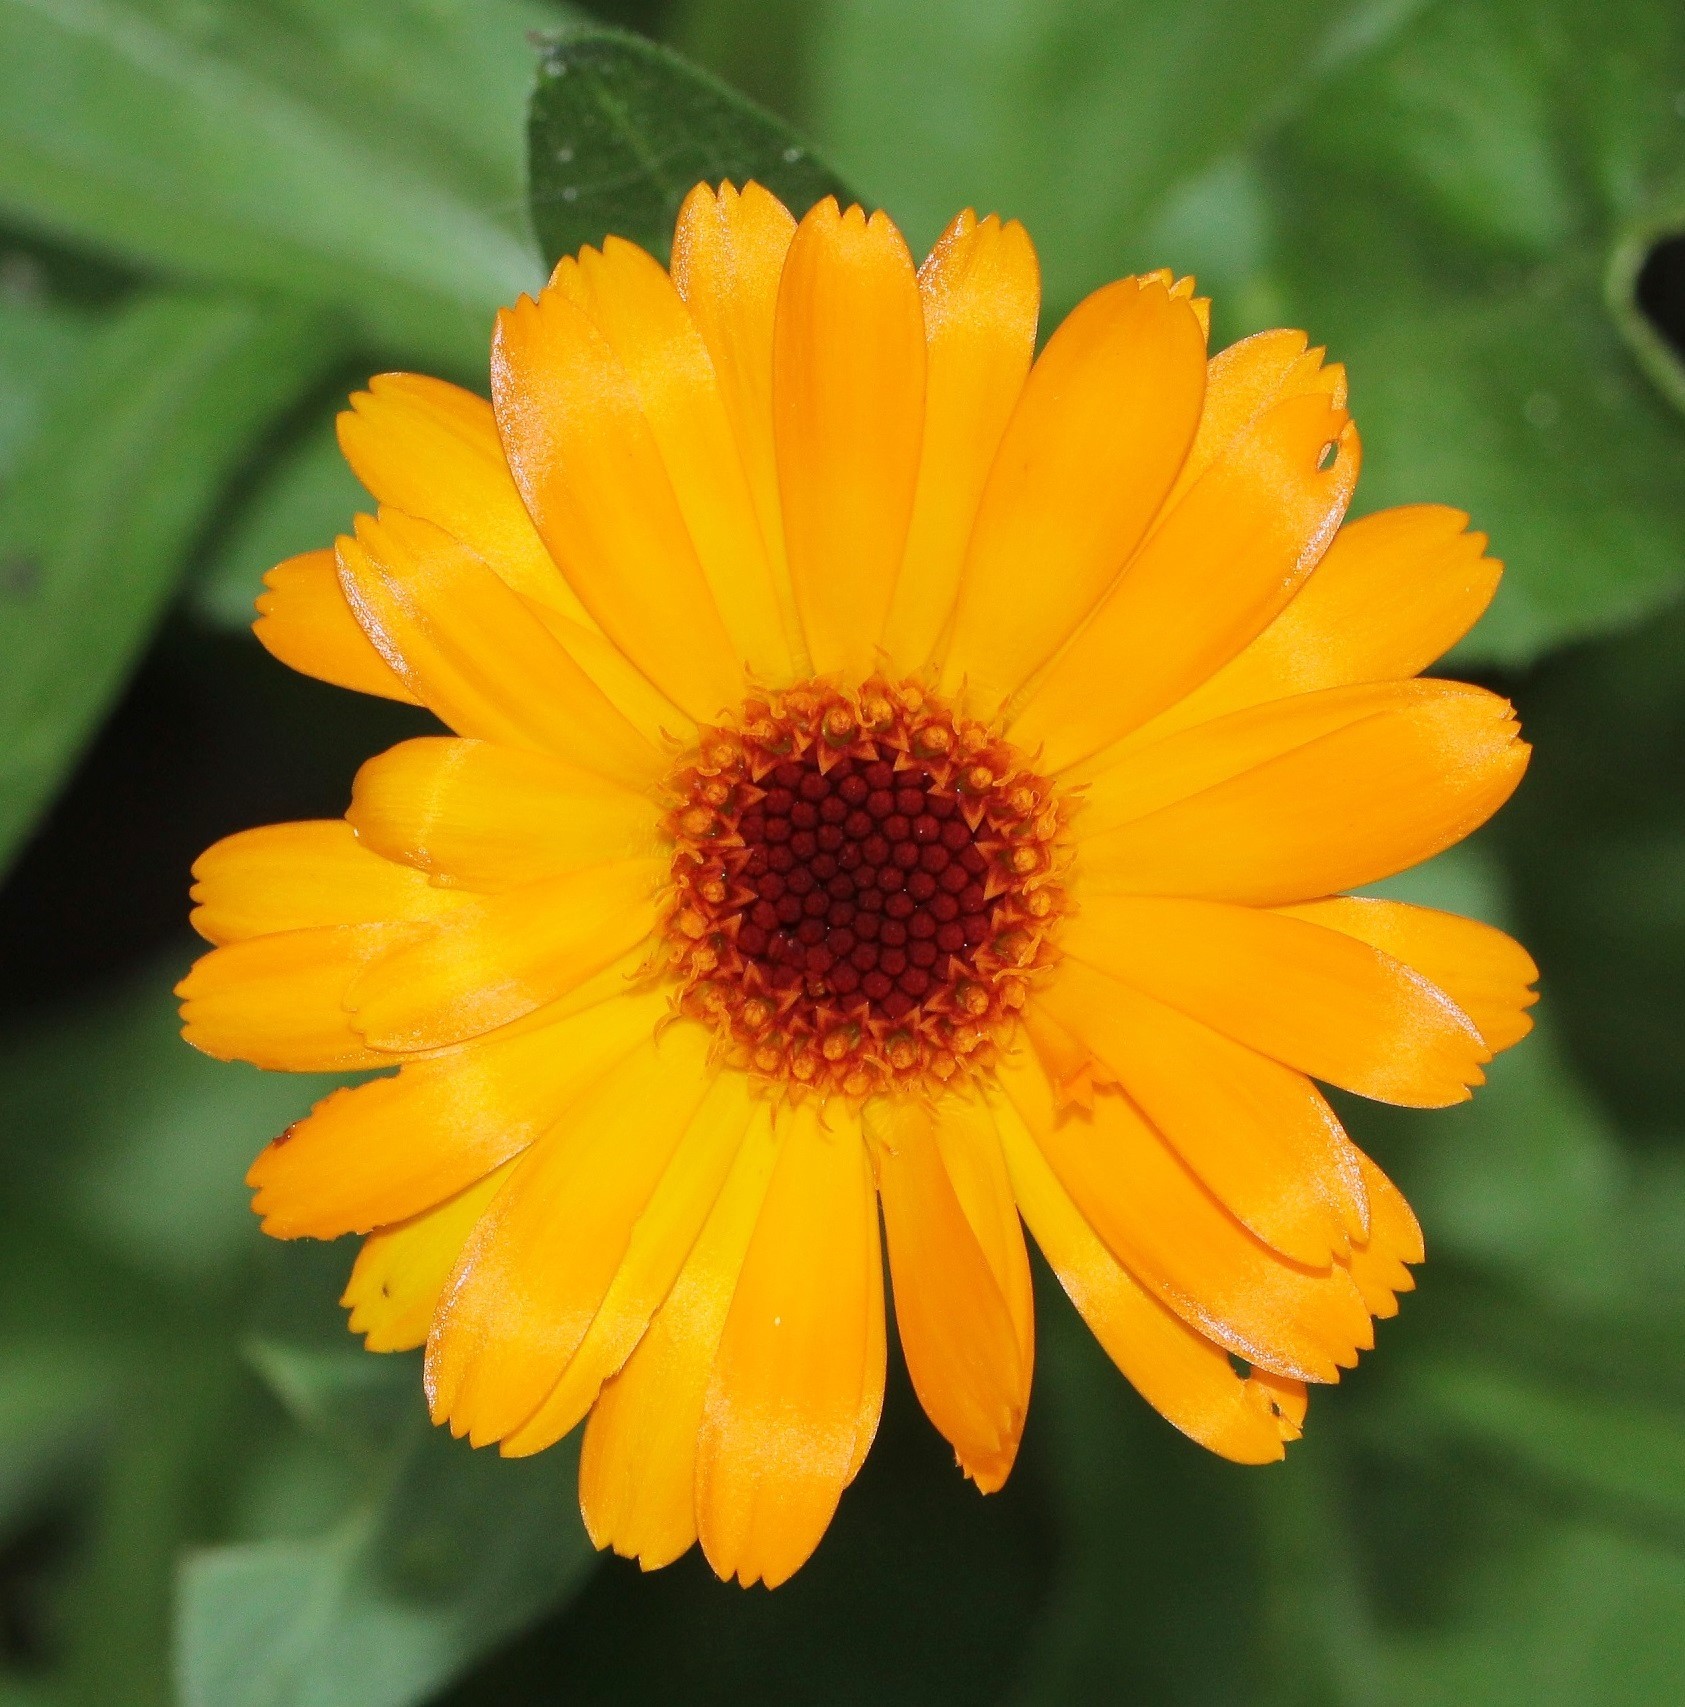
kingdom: Plantae
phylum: Tracheophyta
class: Magnoliopsida
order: Asterales
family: Asteraceae
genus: Calendula
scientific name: Calendula officinalis
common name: Pot marigold
